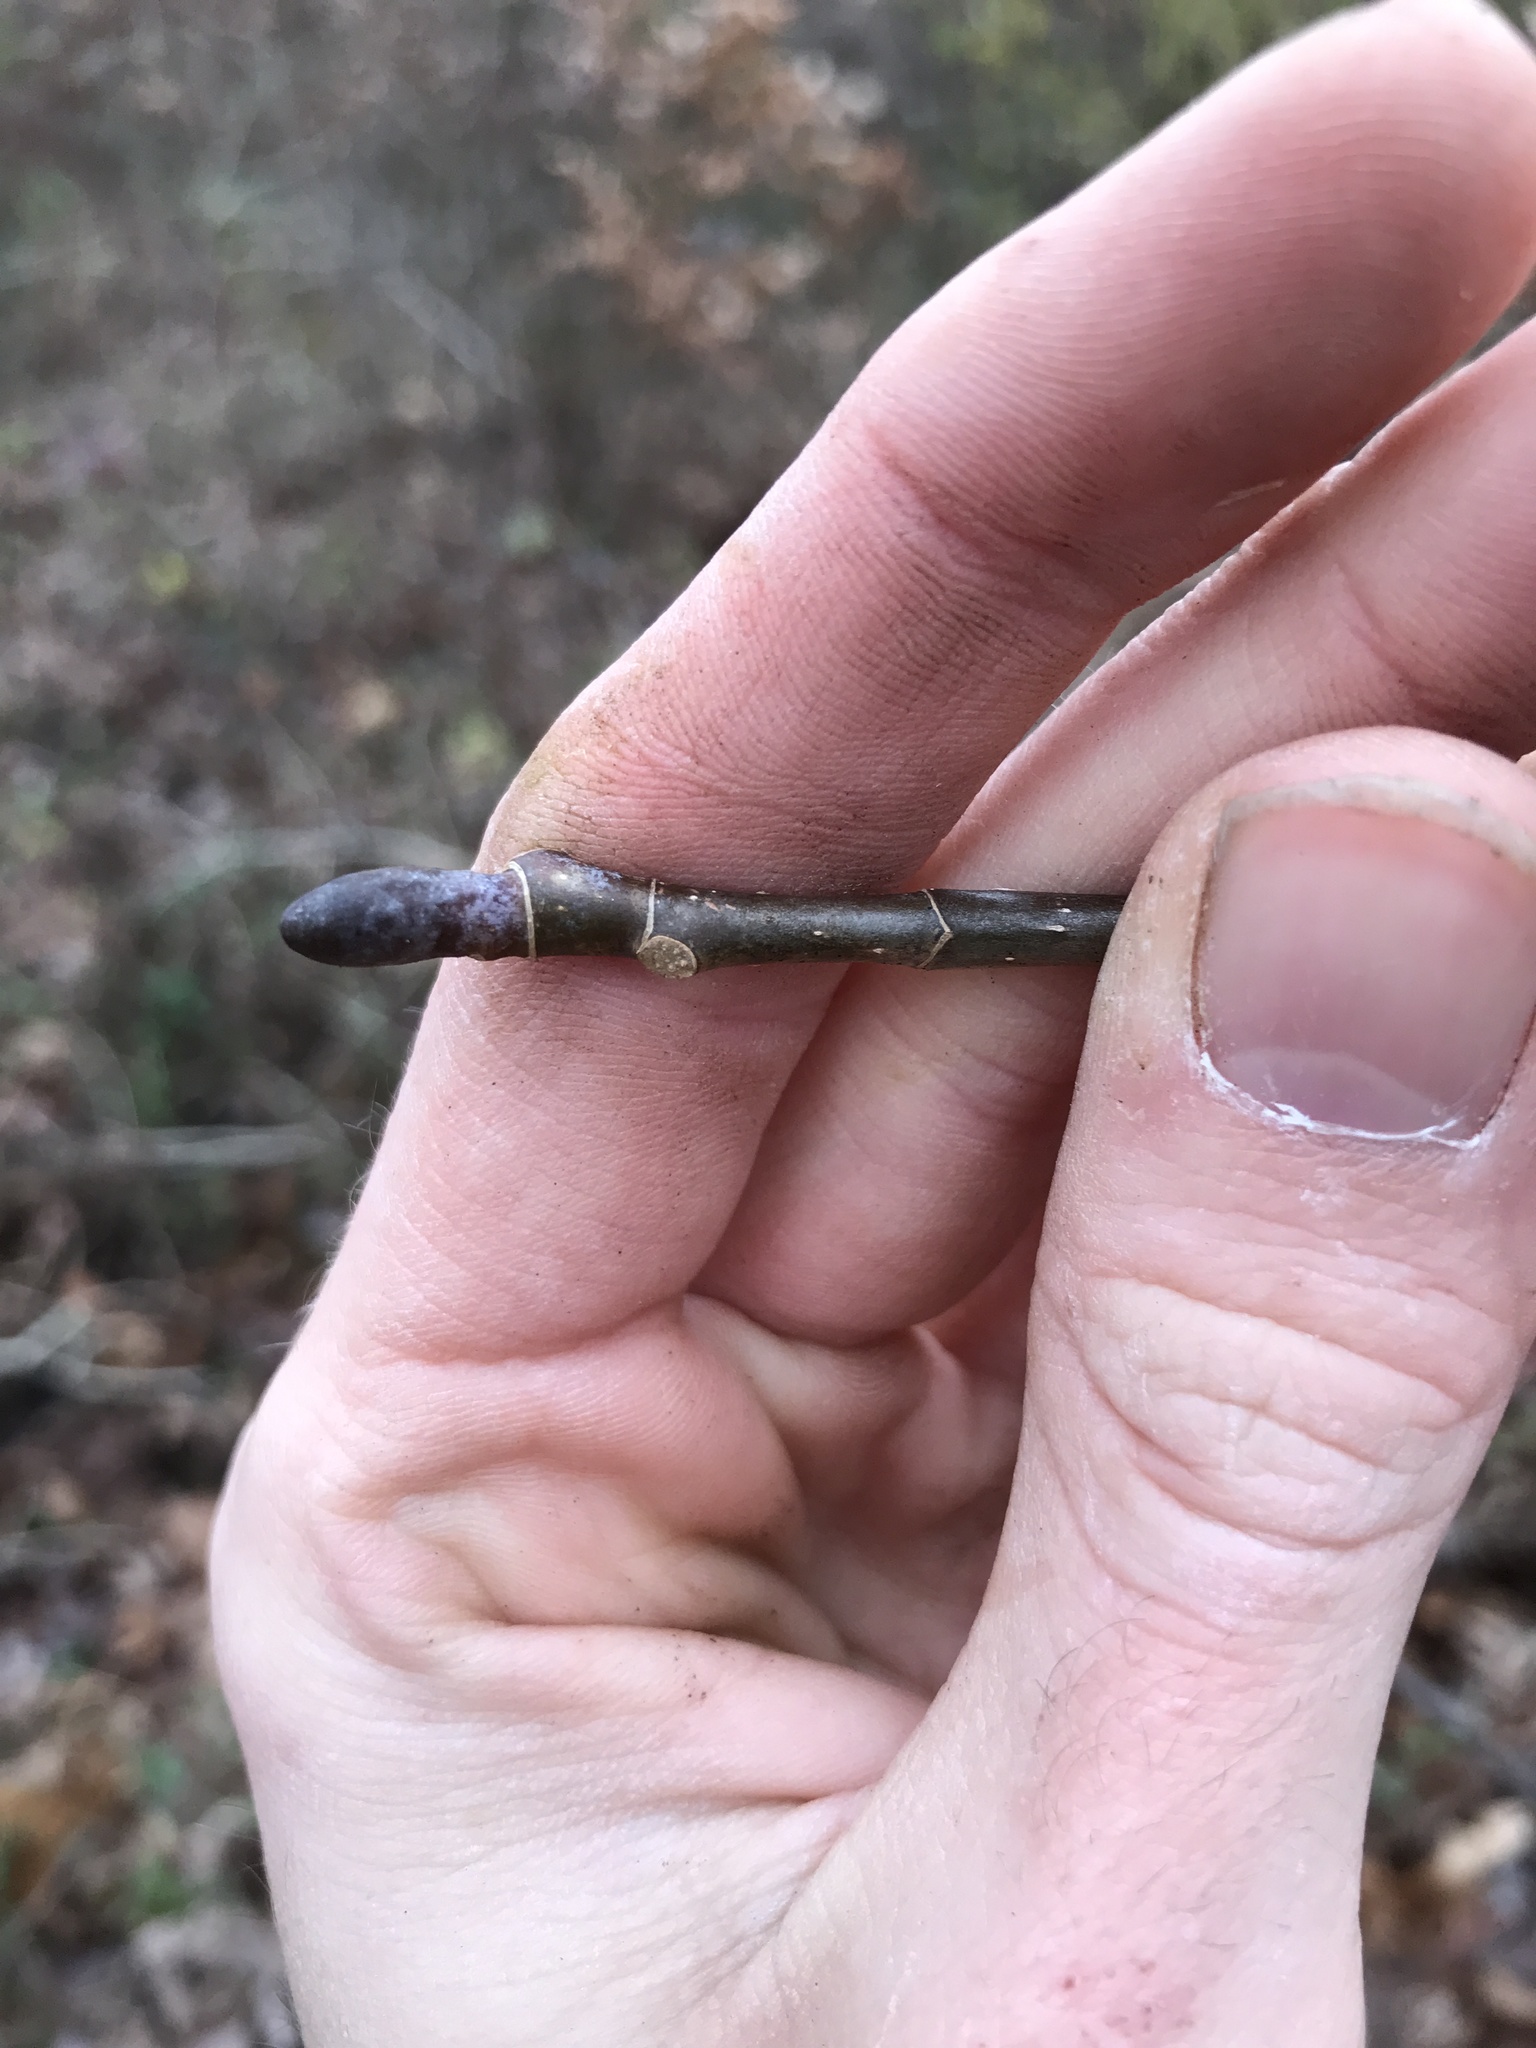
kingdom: Plantae
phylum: Tracheophyta
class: Magnoliopsida
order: Magnoliales
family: Magnoliaceae
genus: Liriodendron
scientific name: Liriodendron tulipifera
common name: Tulip tree
